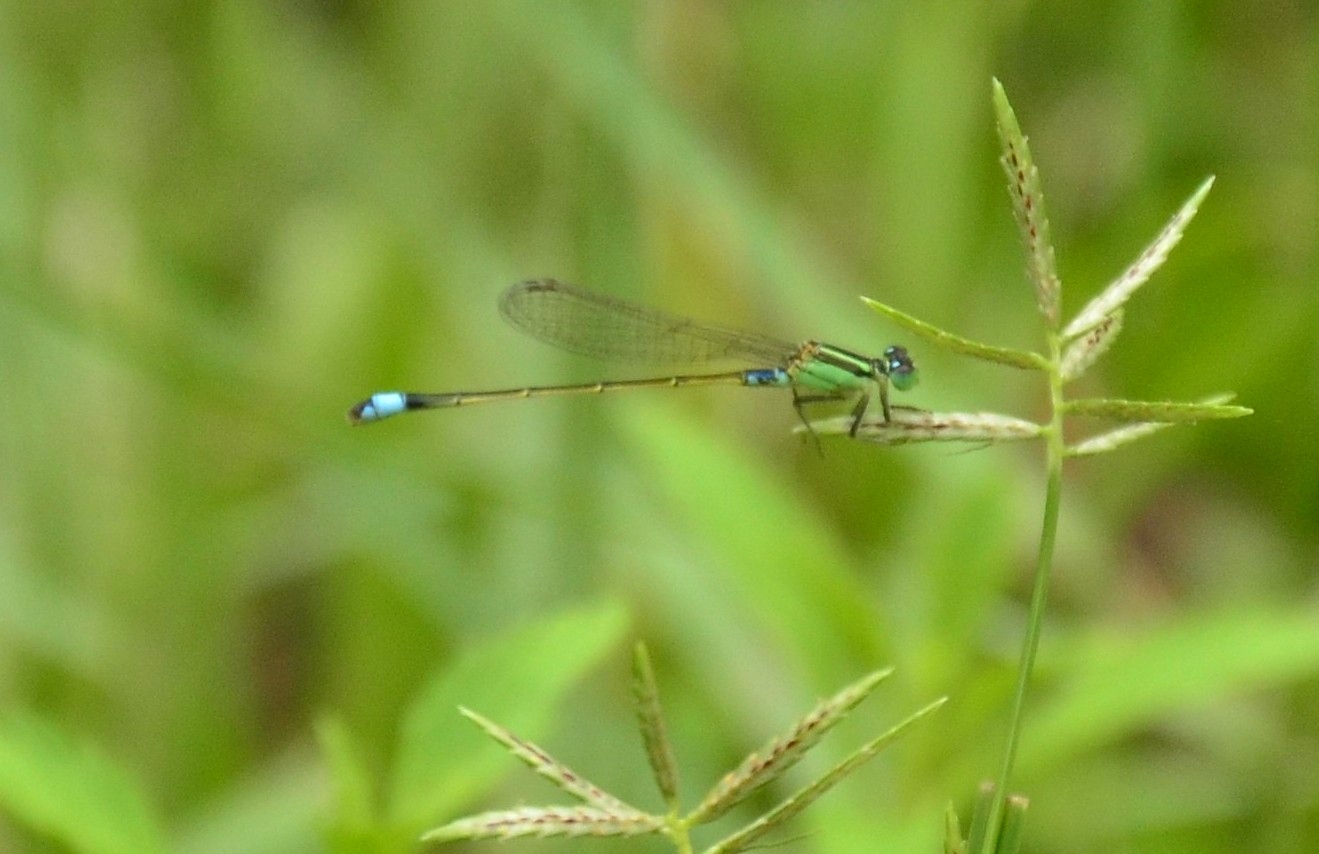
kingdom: Animalia
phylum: Arthropoda
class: Insecta
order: Odonata
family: Coenagrionidae
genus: Ischnura
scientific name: Ischnura senegalensis
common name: Tropical bluetail
